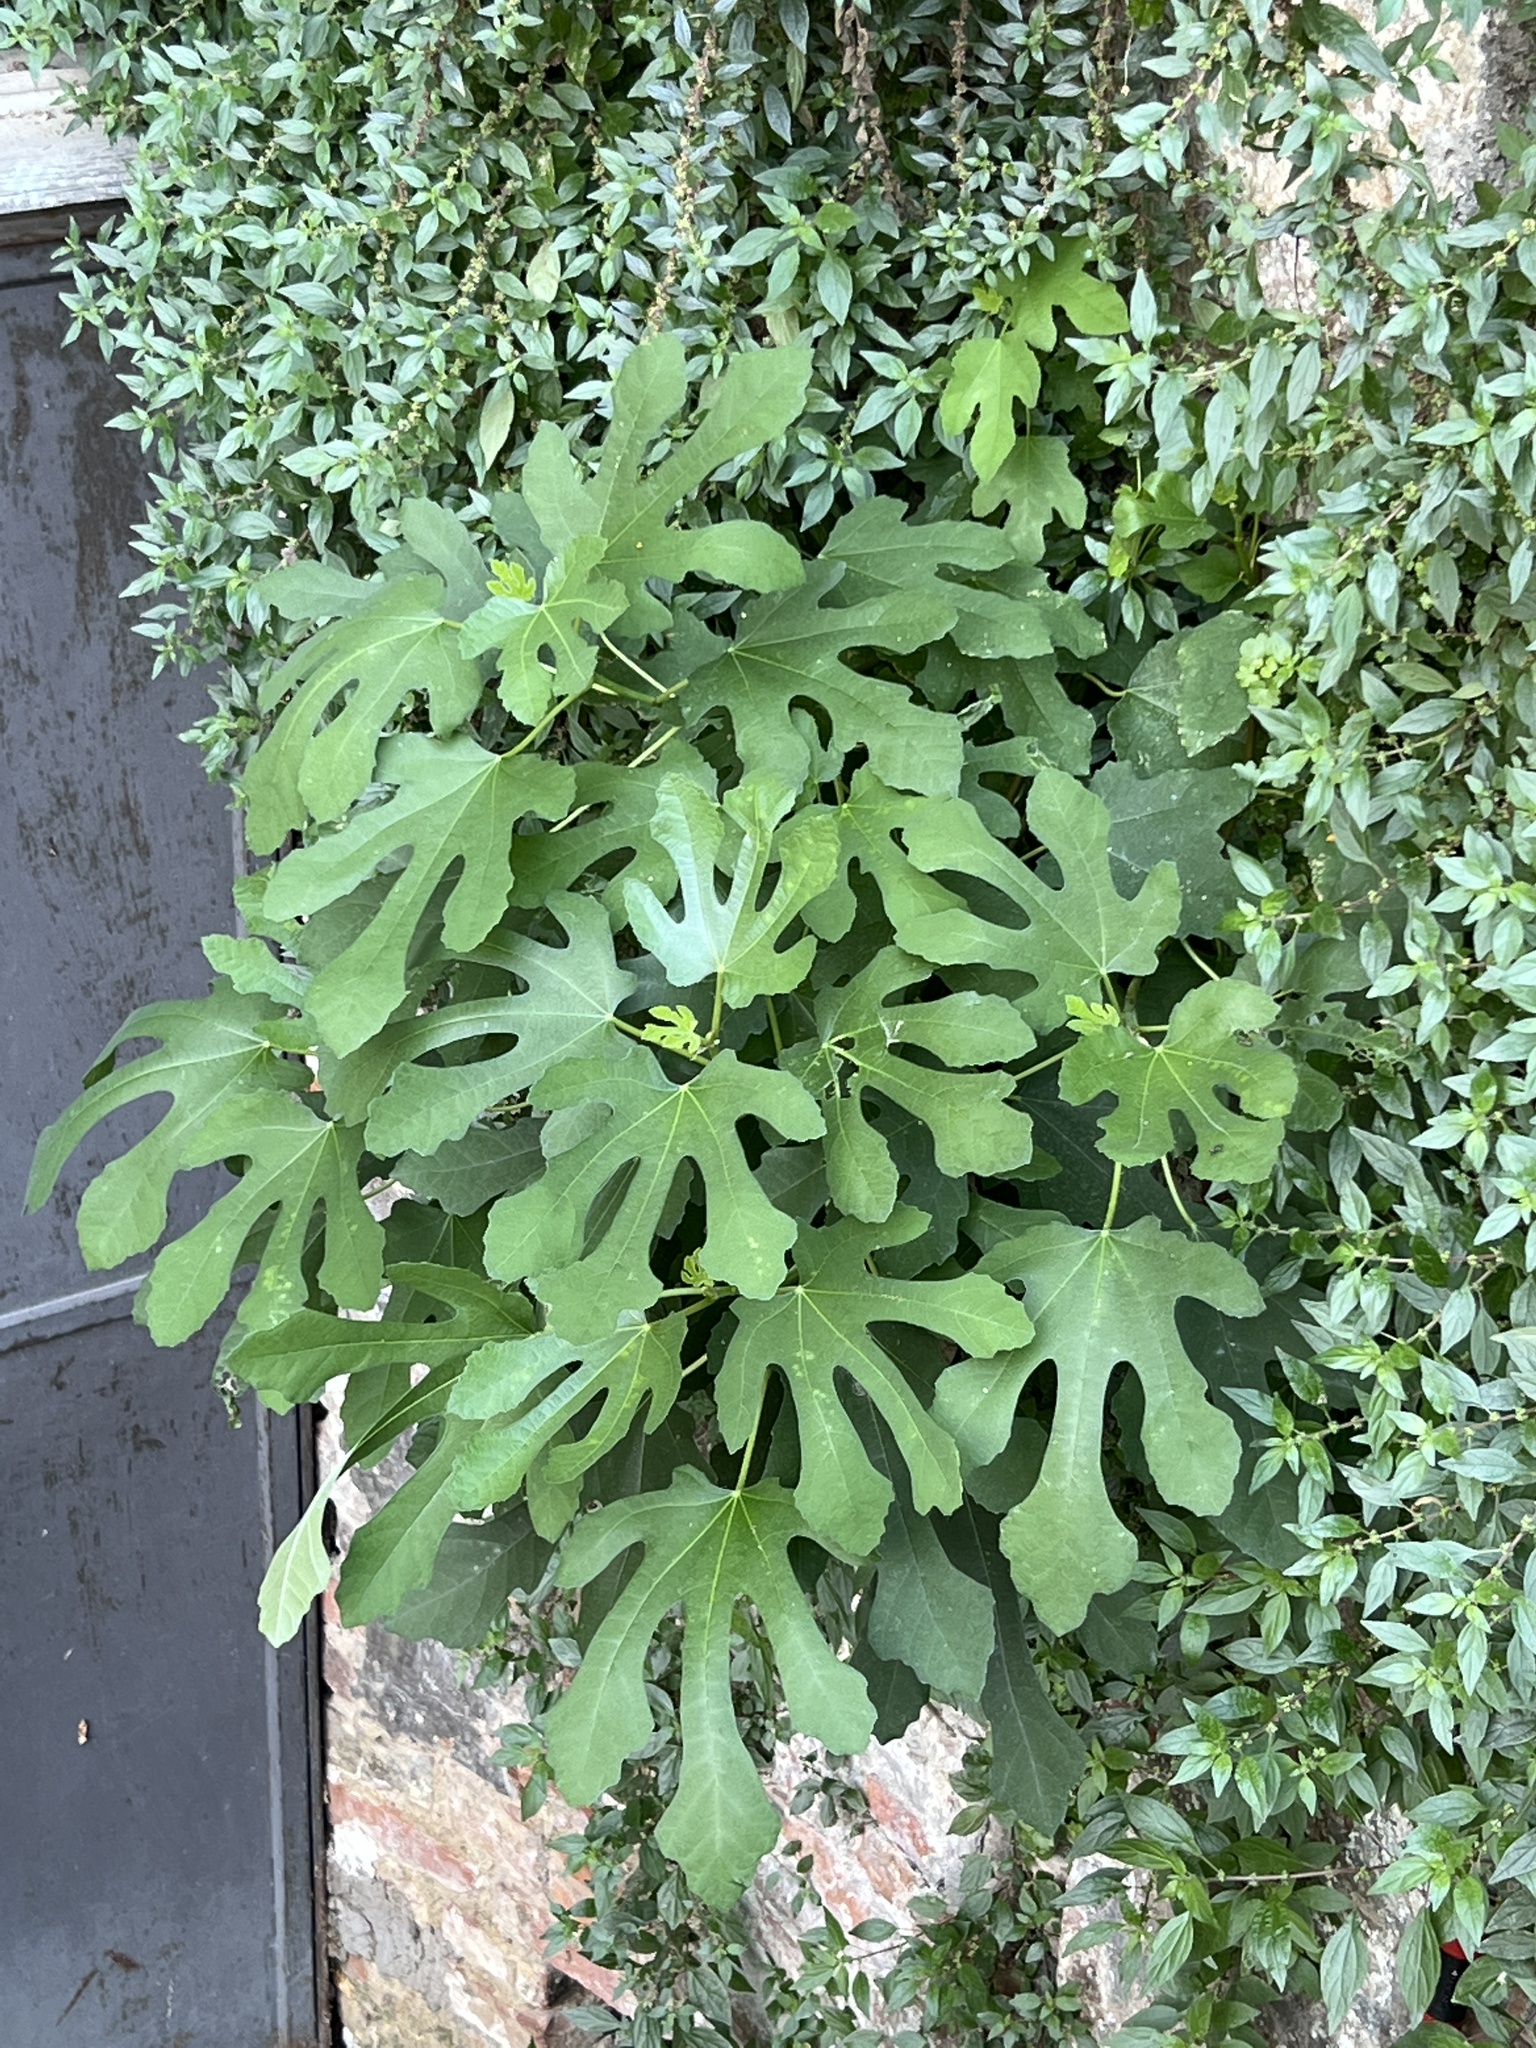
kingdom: Plantae
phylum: Tracheophyta
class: Magnoliopsida
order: Rosales
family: Moraceae
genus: Ficus
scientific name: Ficus carica
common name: Fig
